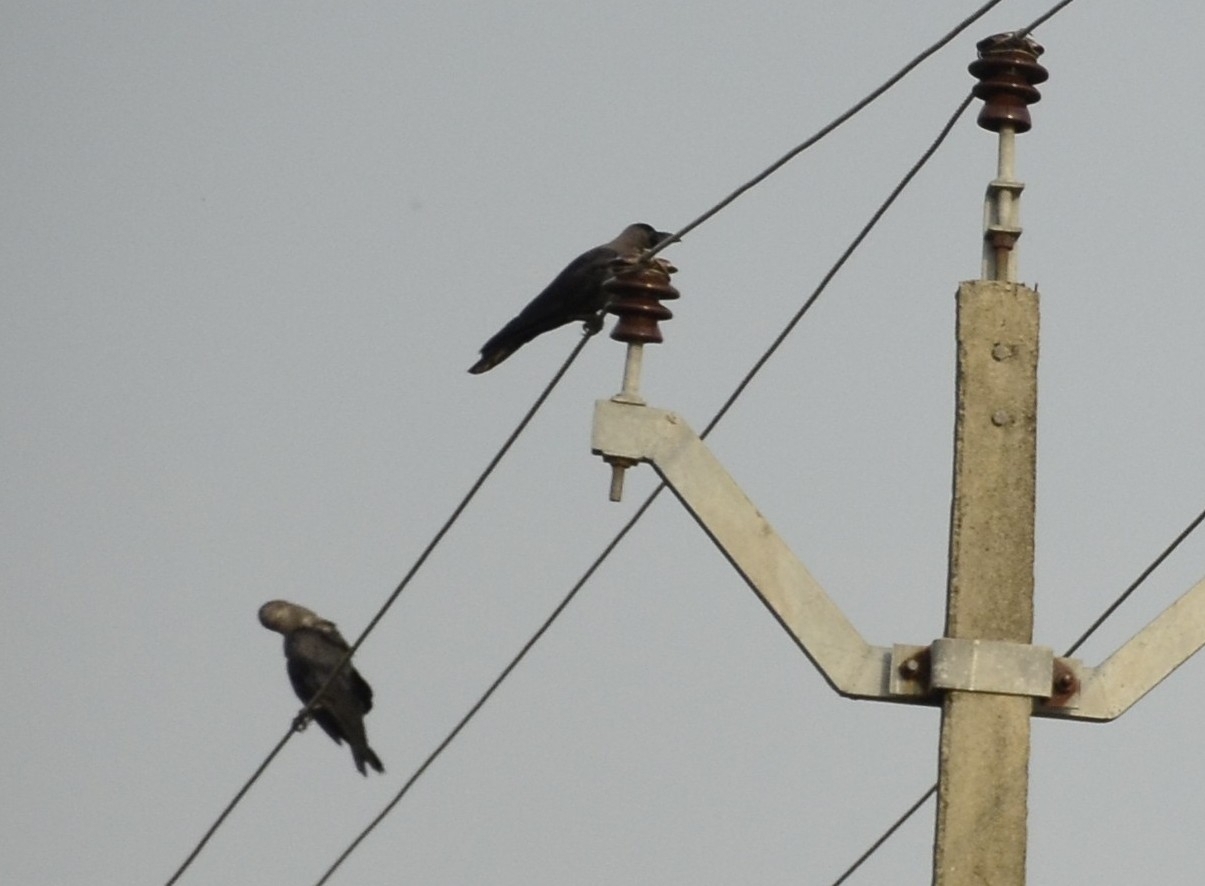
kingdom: Animalia
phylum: Chordata
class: Aves
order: Passeriformes
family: Corvidae
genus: Corvus
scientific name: Corvus splendens
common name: House crow
